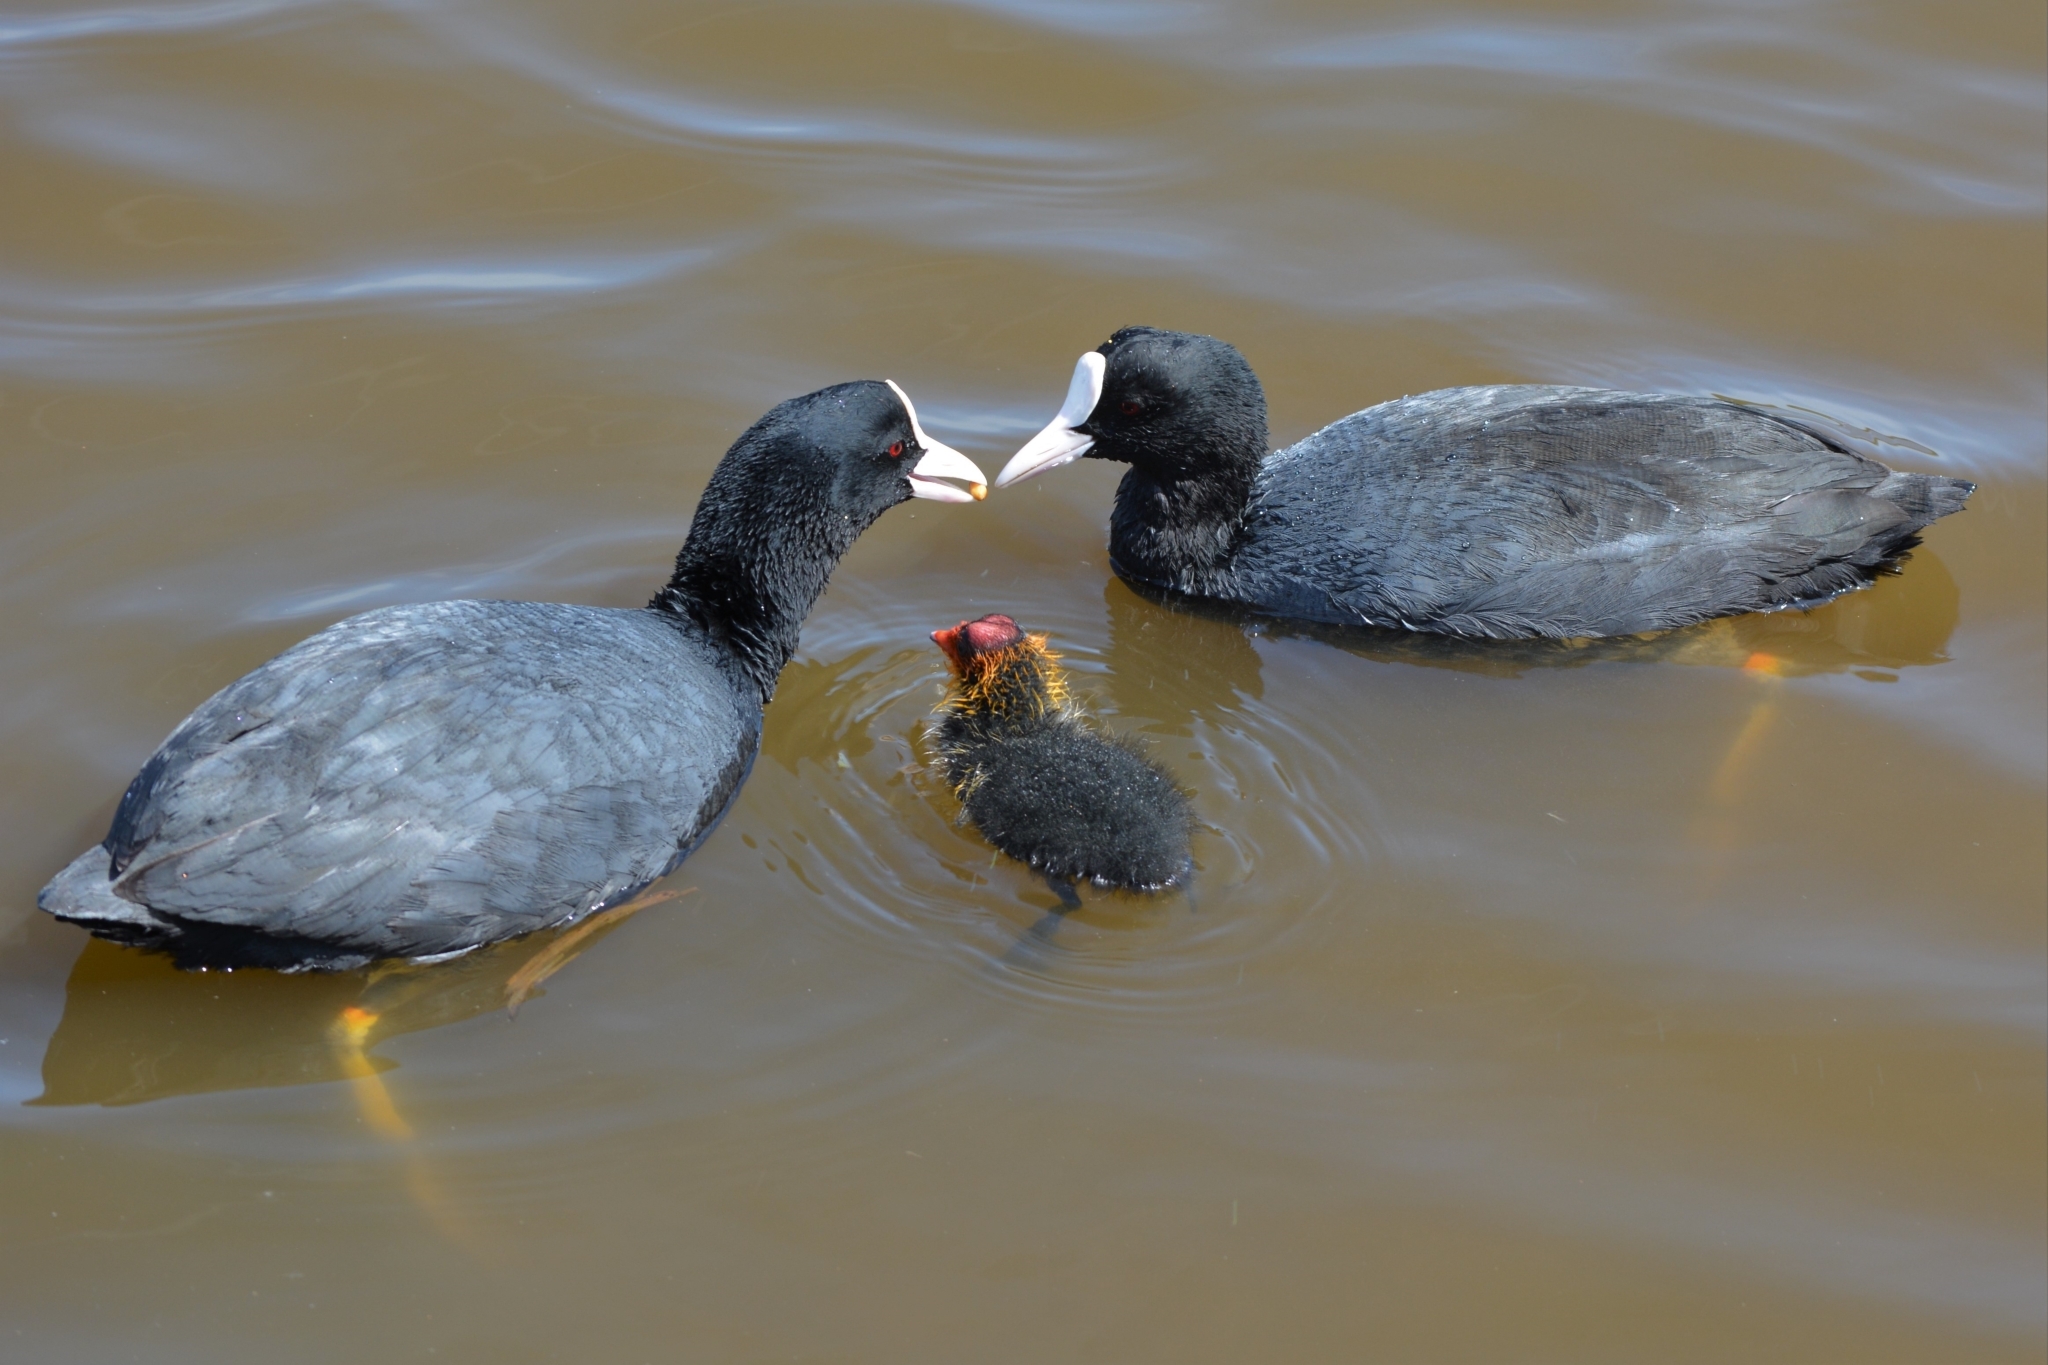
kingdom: Animalia
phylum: Chordata
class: Aves
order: Gruiformes
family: Rallidae
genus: Fulica
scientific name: Fulica atra
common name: Eurasian coot
